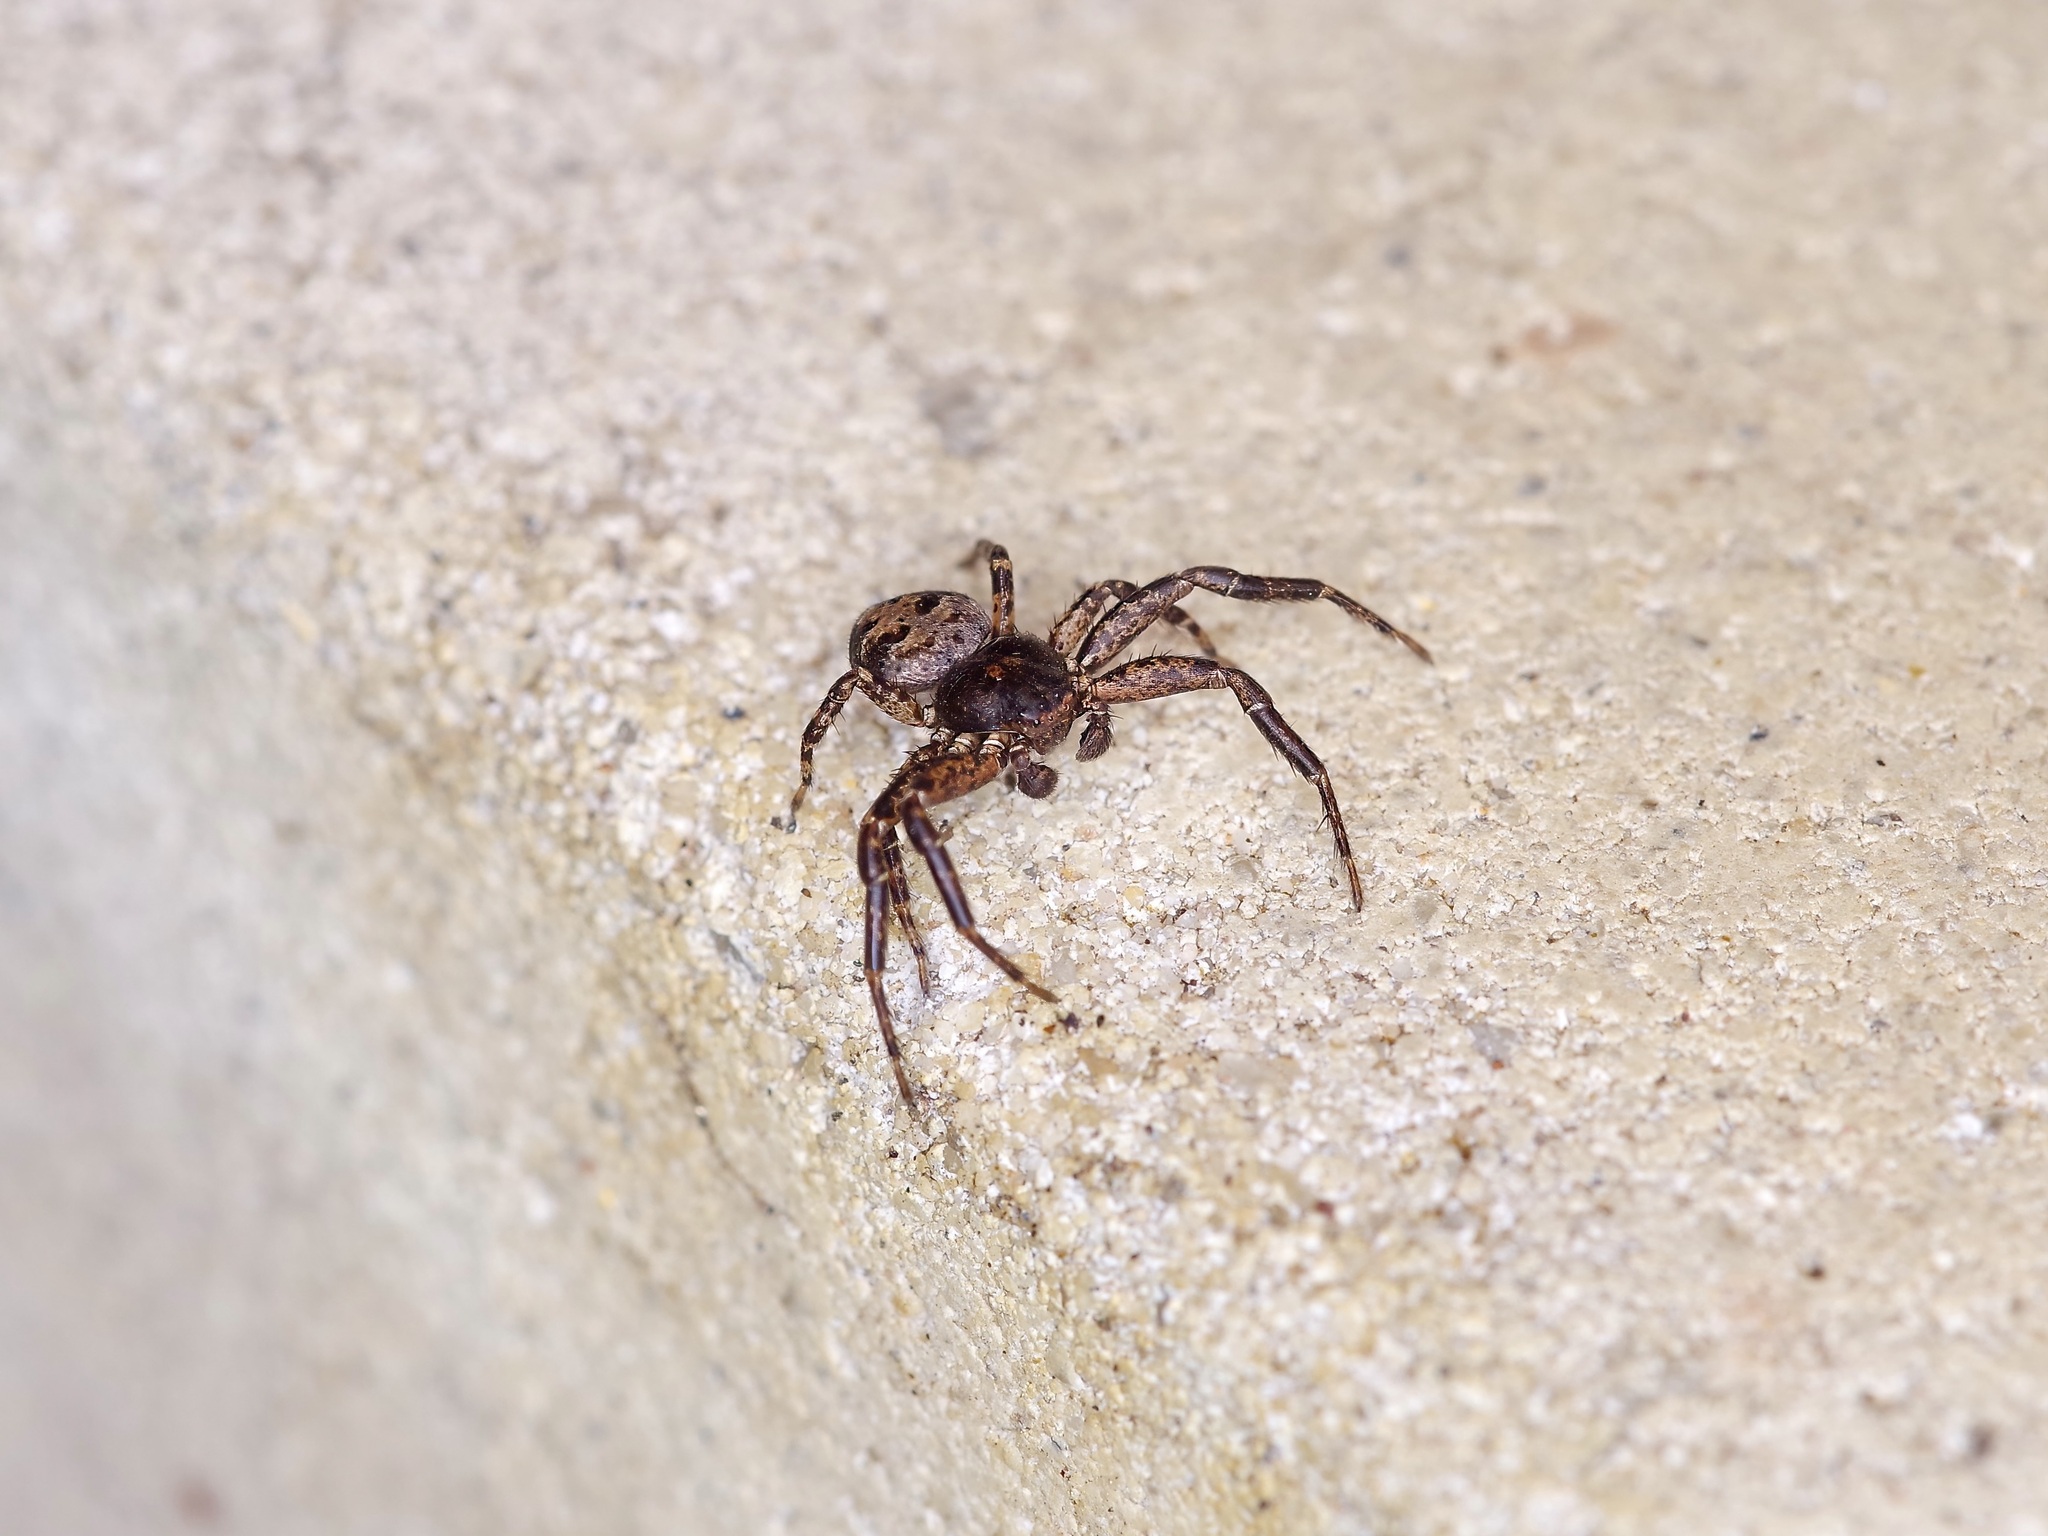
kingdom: Animalia
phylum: Arthropoda
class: Arachnida
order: Araneae
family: Thomisidae
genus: Bassaniana
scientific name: Bassaniana versicolor
